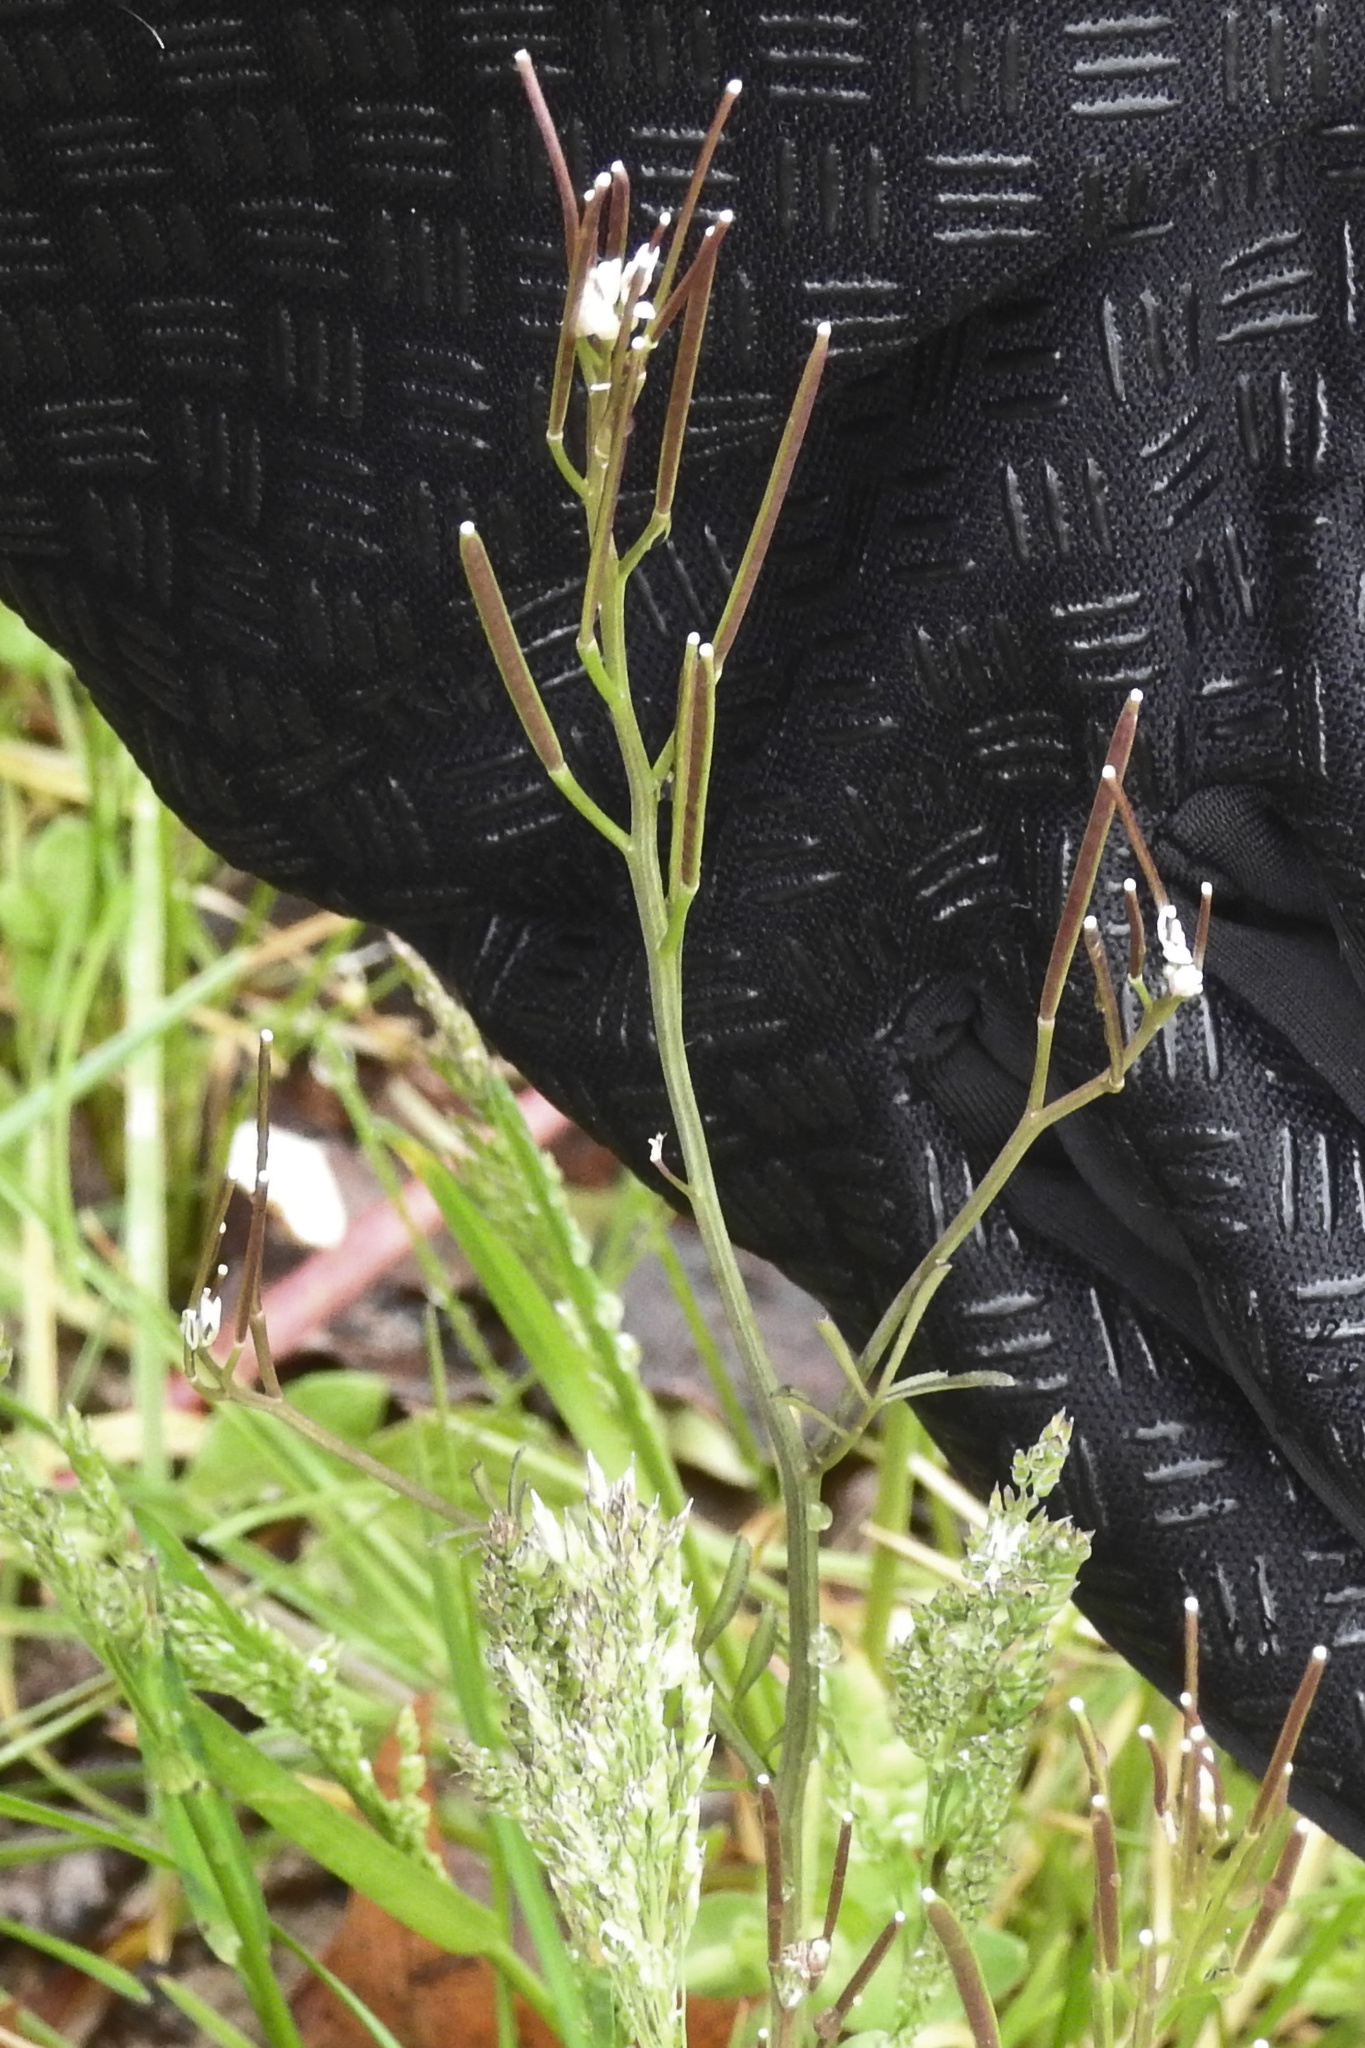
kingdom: Plantae
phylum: Tracheophyta
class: Magnoliopsida
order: Brassicales
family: Brassicaceae
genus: Cardamine
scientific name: Cardamine hirsuta
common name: Hairy bittercress
